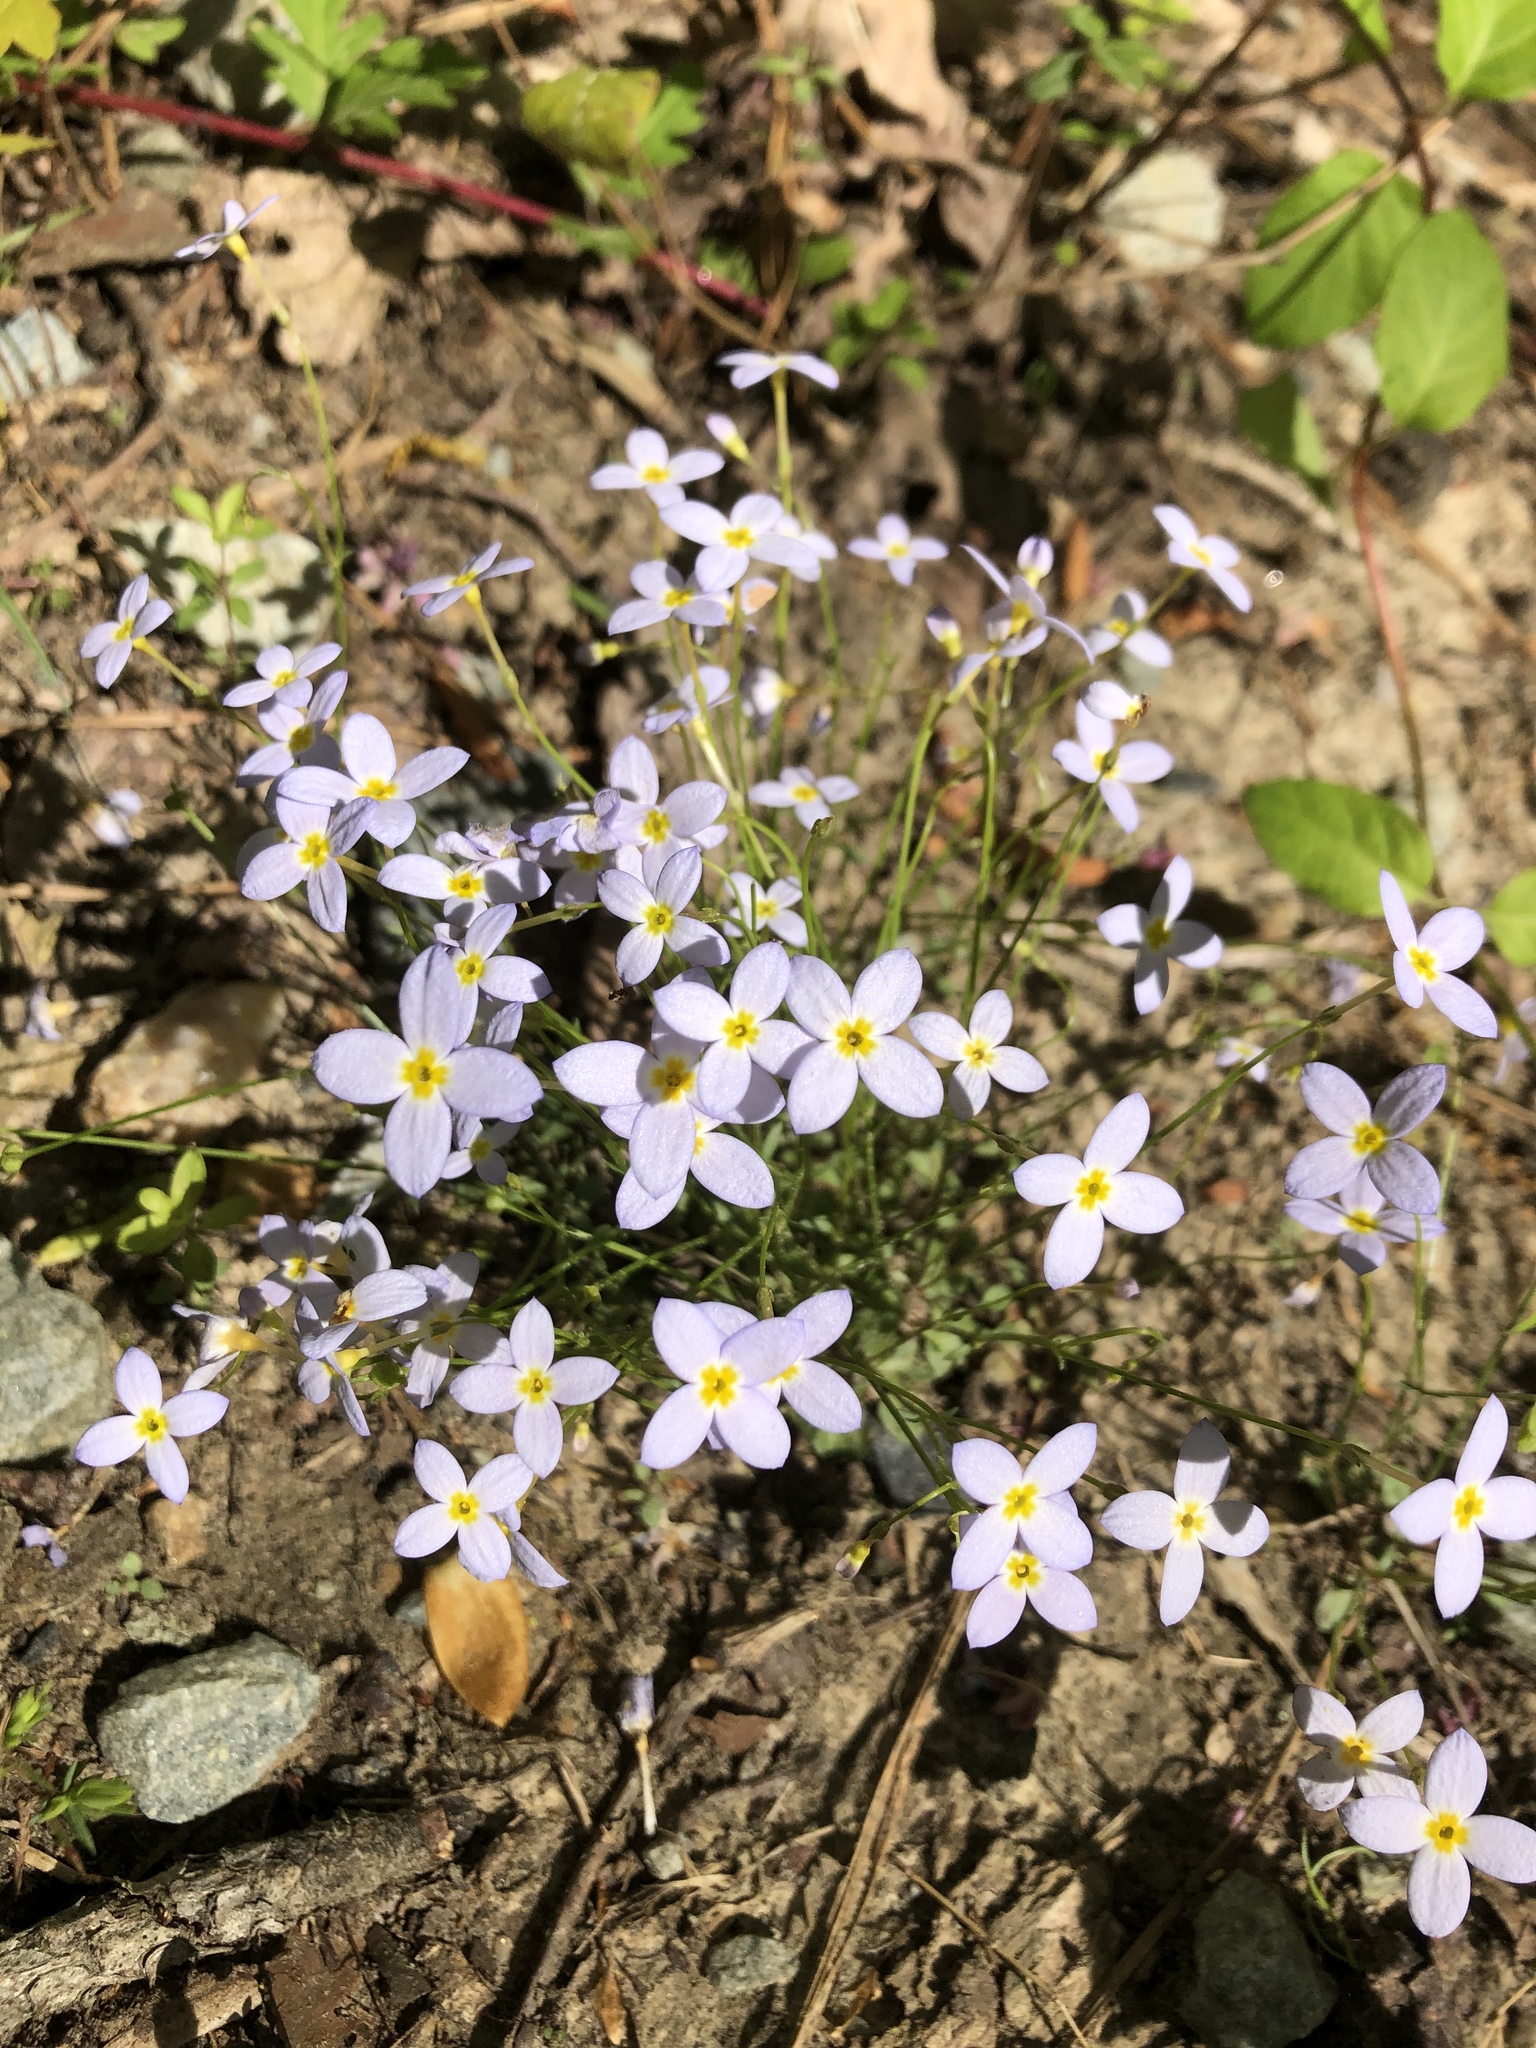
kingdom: Plantae
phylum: Tracheophyta
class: Magnoliopsida
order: Gentianales
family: Rubiaceae
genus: Houstonia
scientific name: Houstonia caerulea
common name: Bluets
